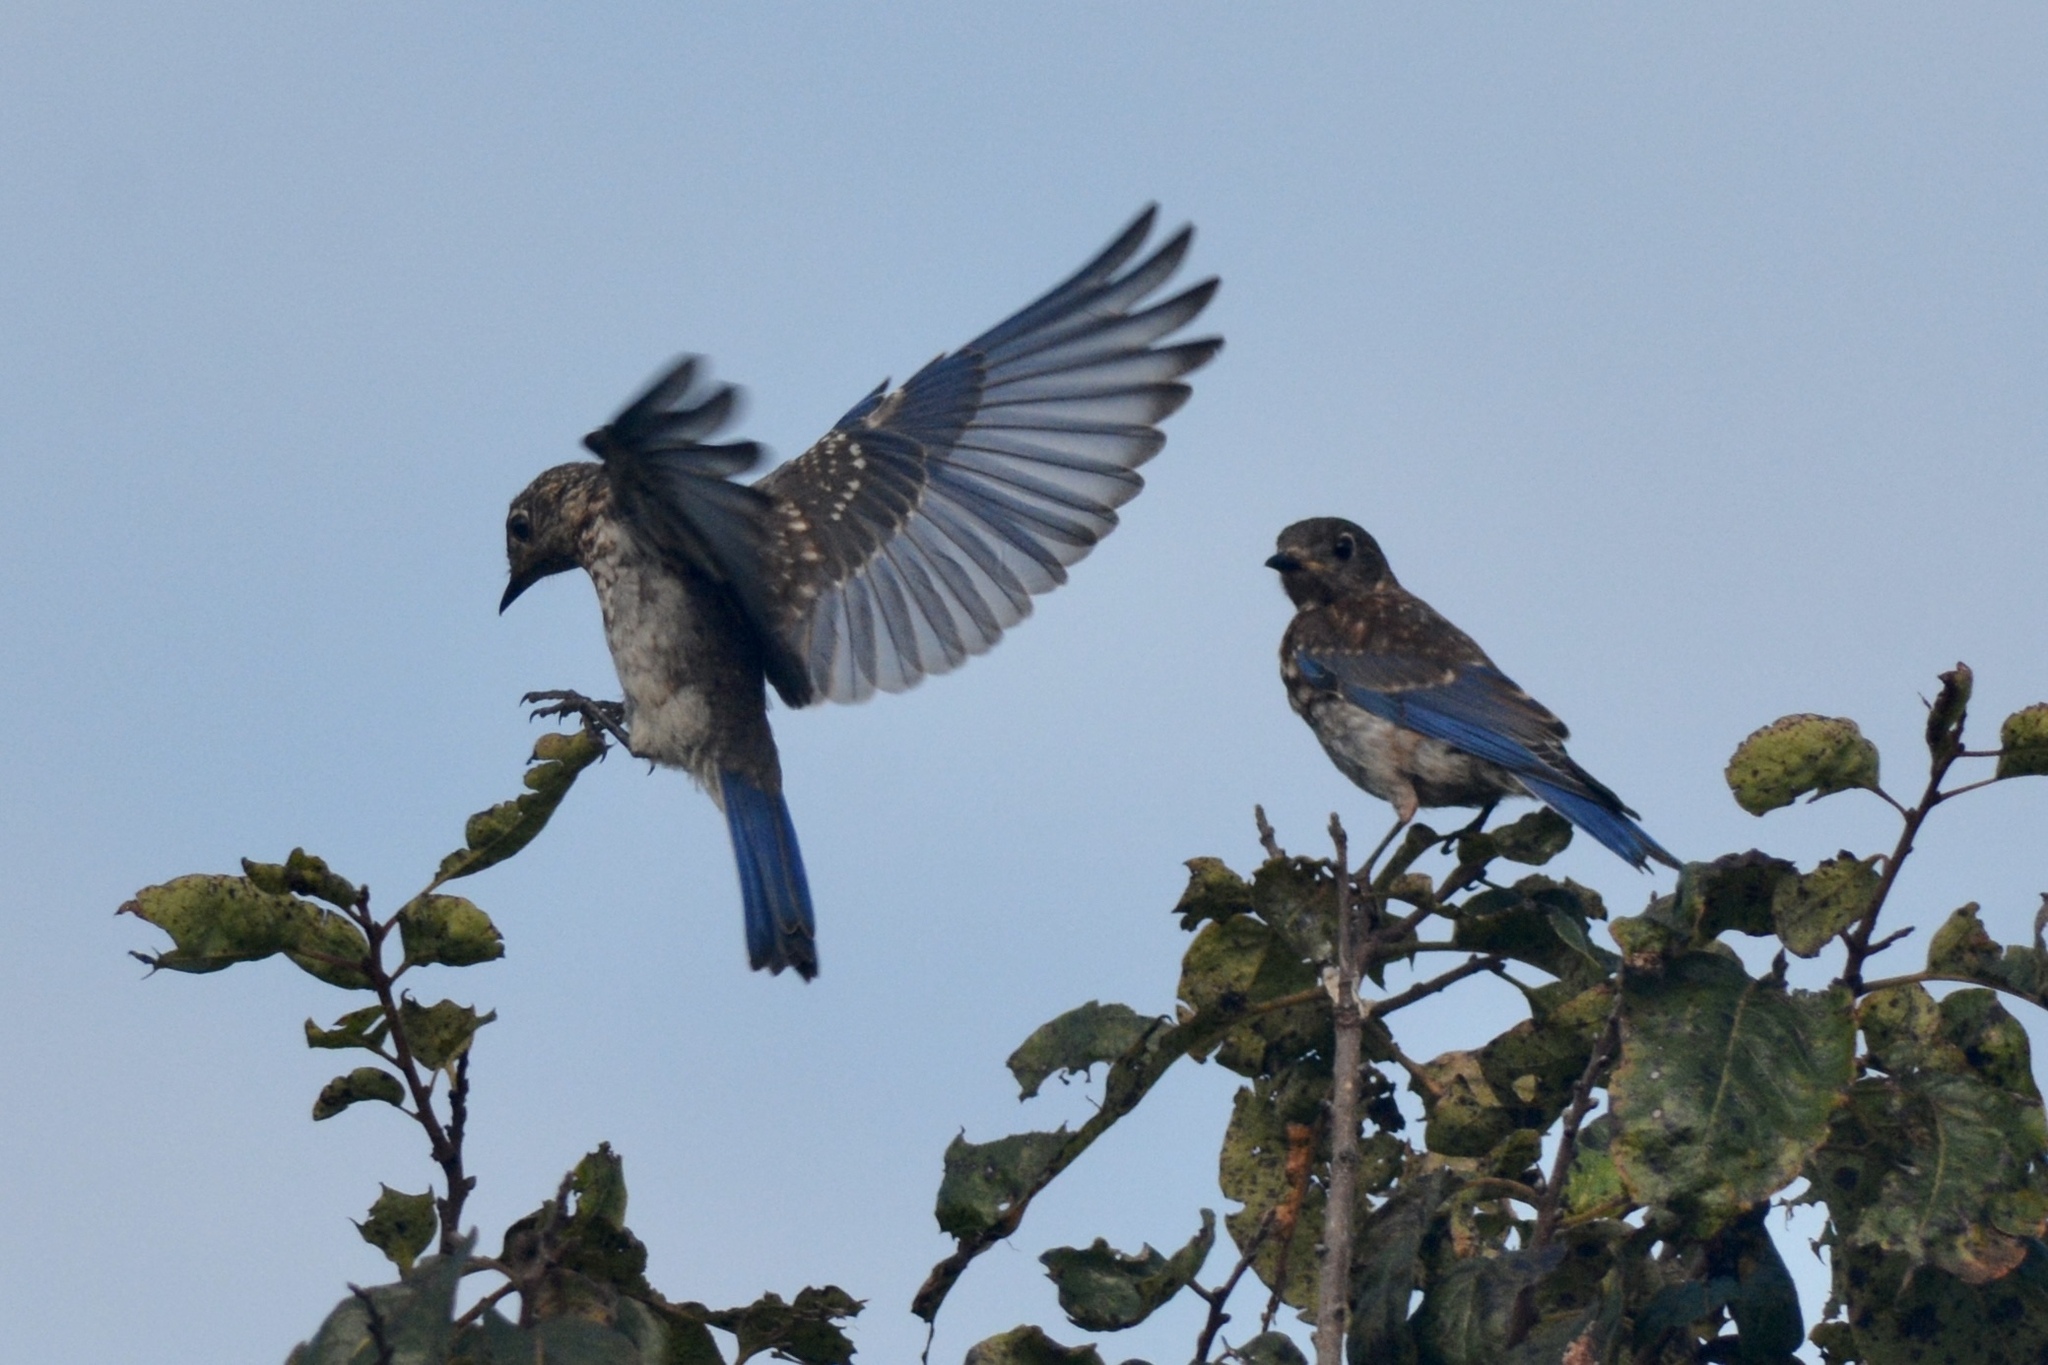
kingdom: Animalia
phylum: Chordata
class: Aves
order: Passeriformes
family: Turdidae
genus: Sialia
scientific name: Sialia sialis
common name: Eastern bluebird
